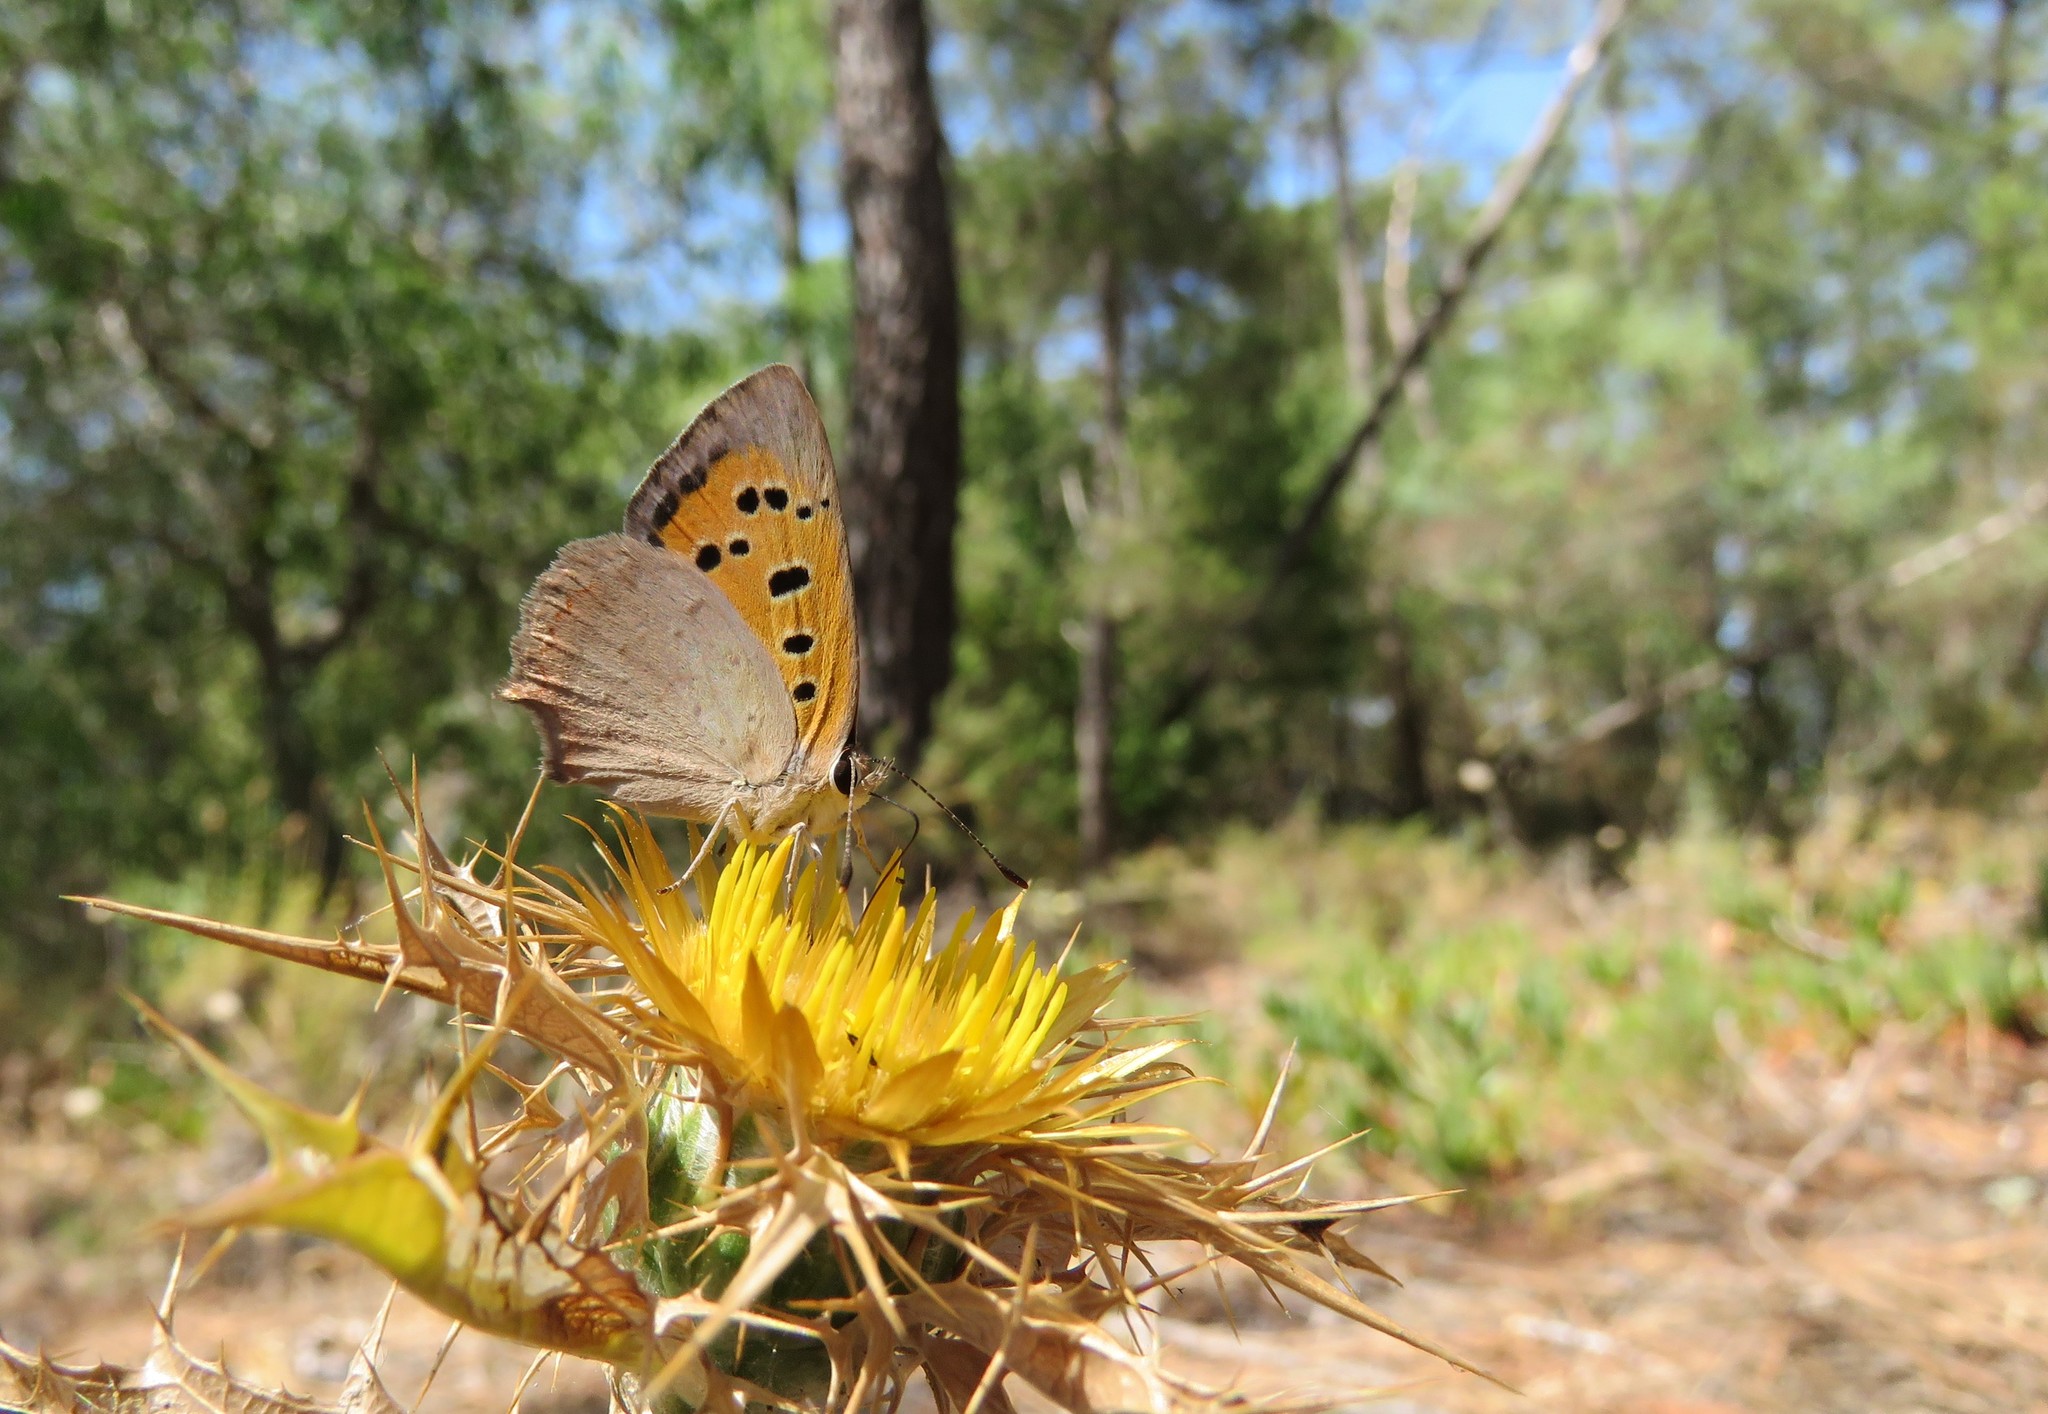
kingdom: Animalia
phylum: Arthropoda
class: Insecta
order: Lepidoptera
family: Lycaenidae
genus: Lycaena
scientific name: Lycaena phlaeas
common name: Small copper
